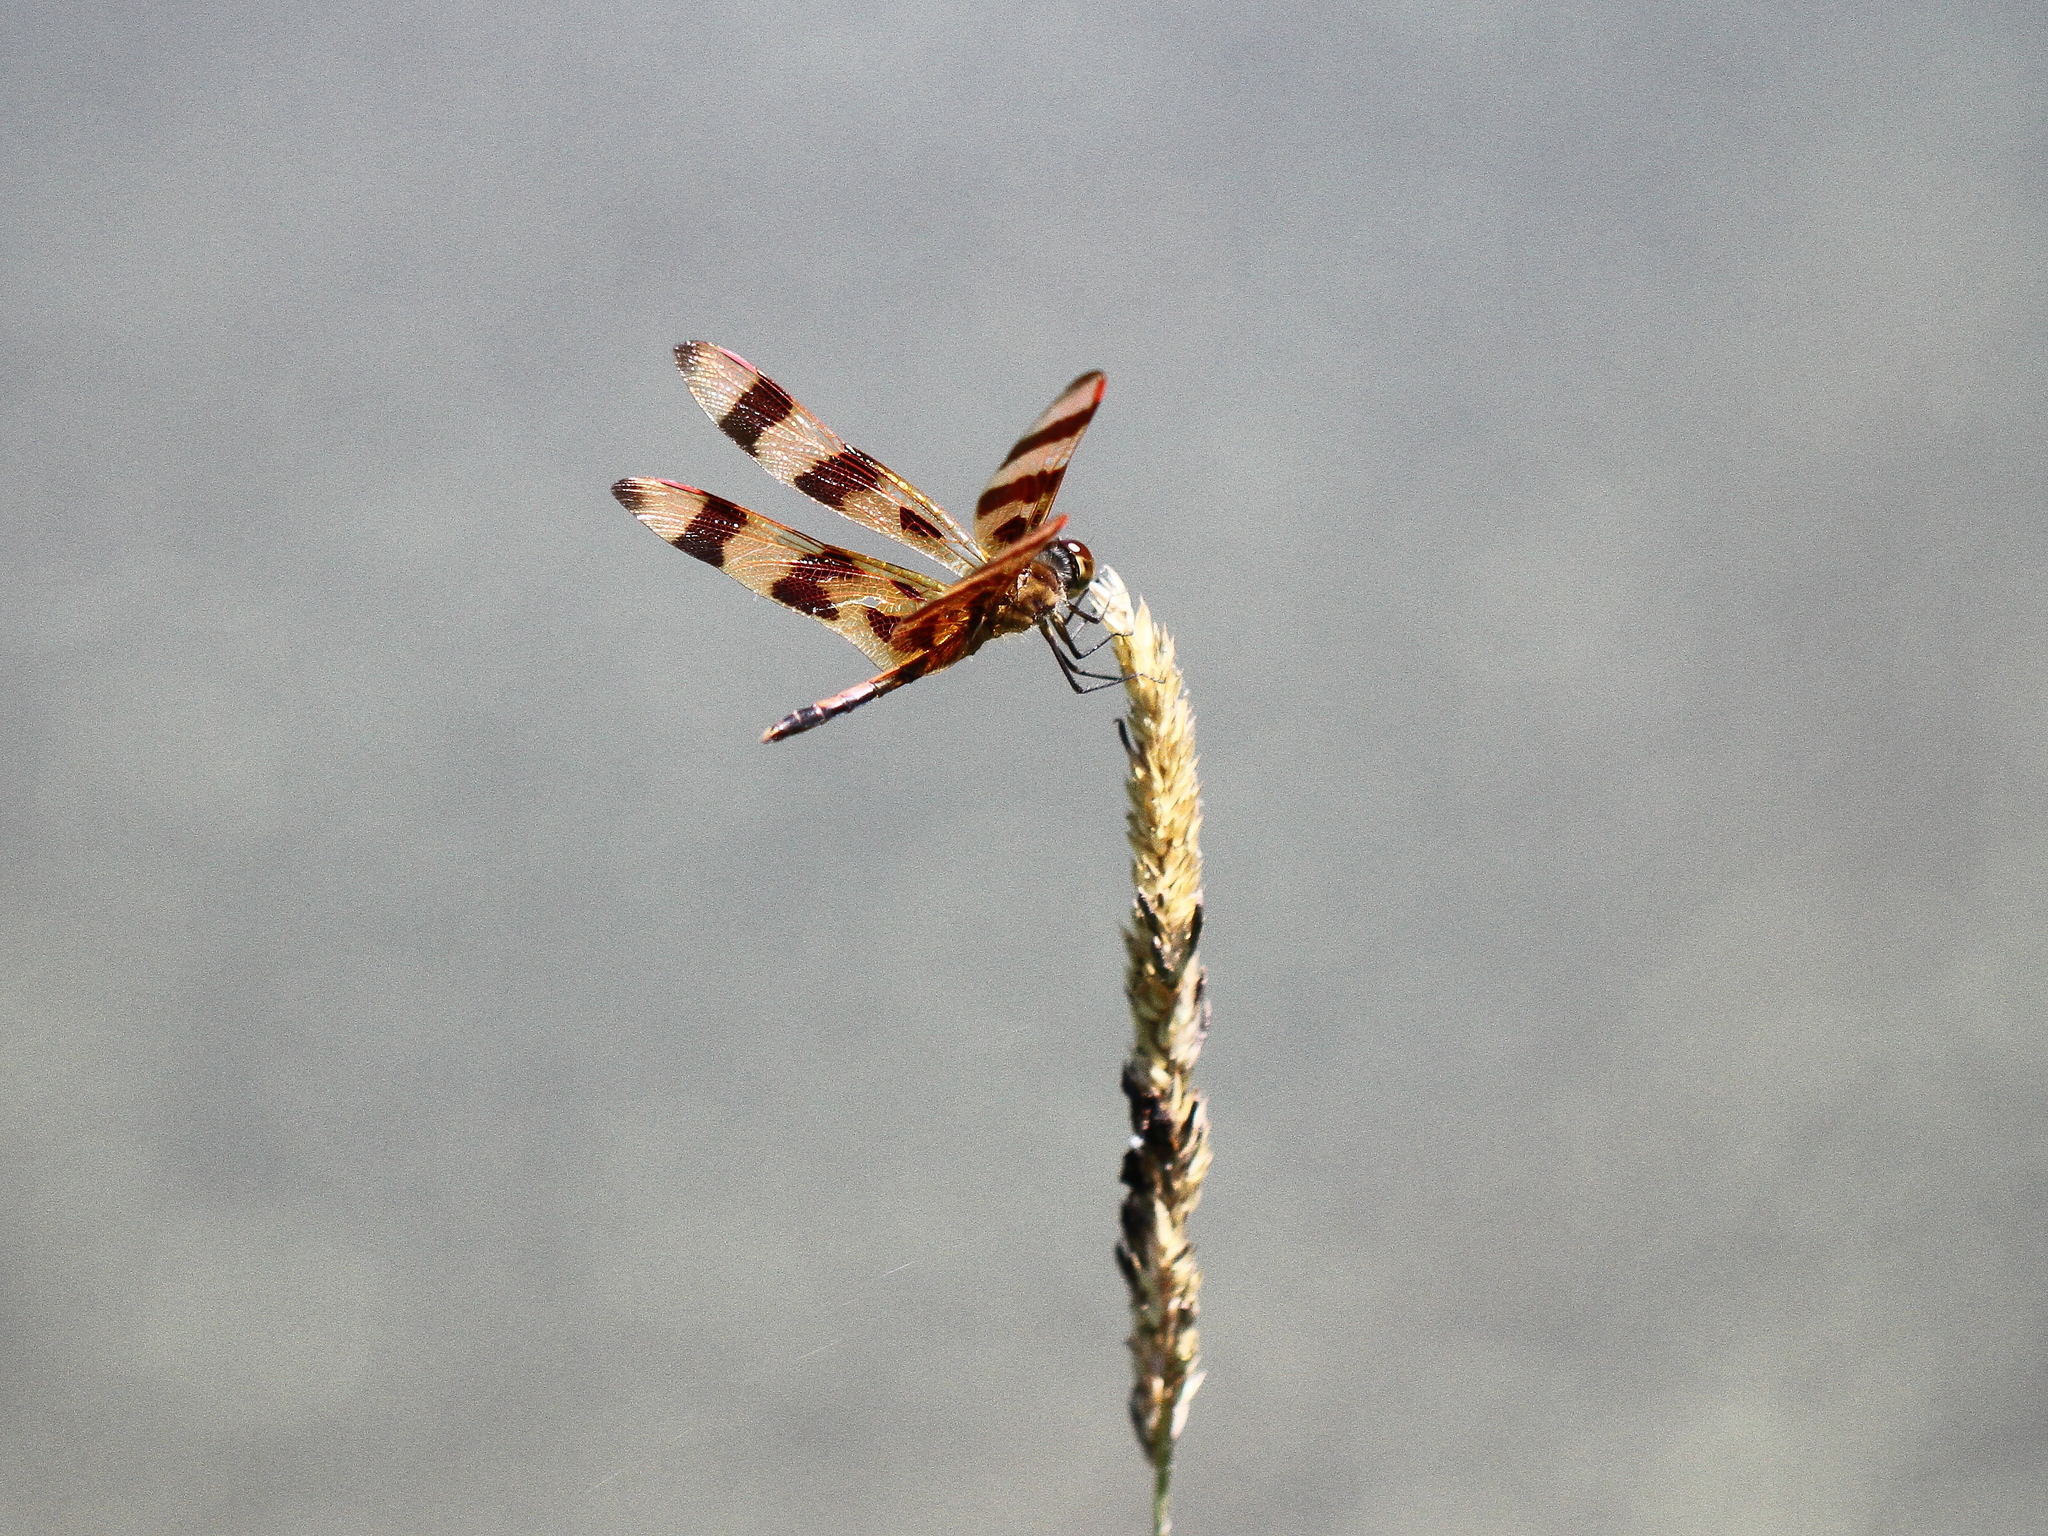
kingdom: Animalia
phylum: Arthropoda
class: Insecta
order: Odonata
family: Libellulidae
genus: Celithemis
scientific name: Celithemis eponina
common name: Halloween pennant
